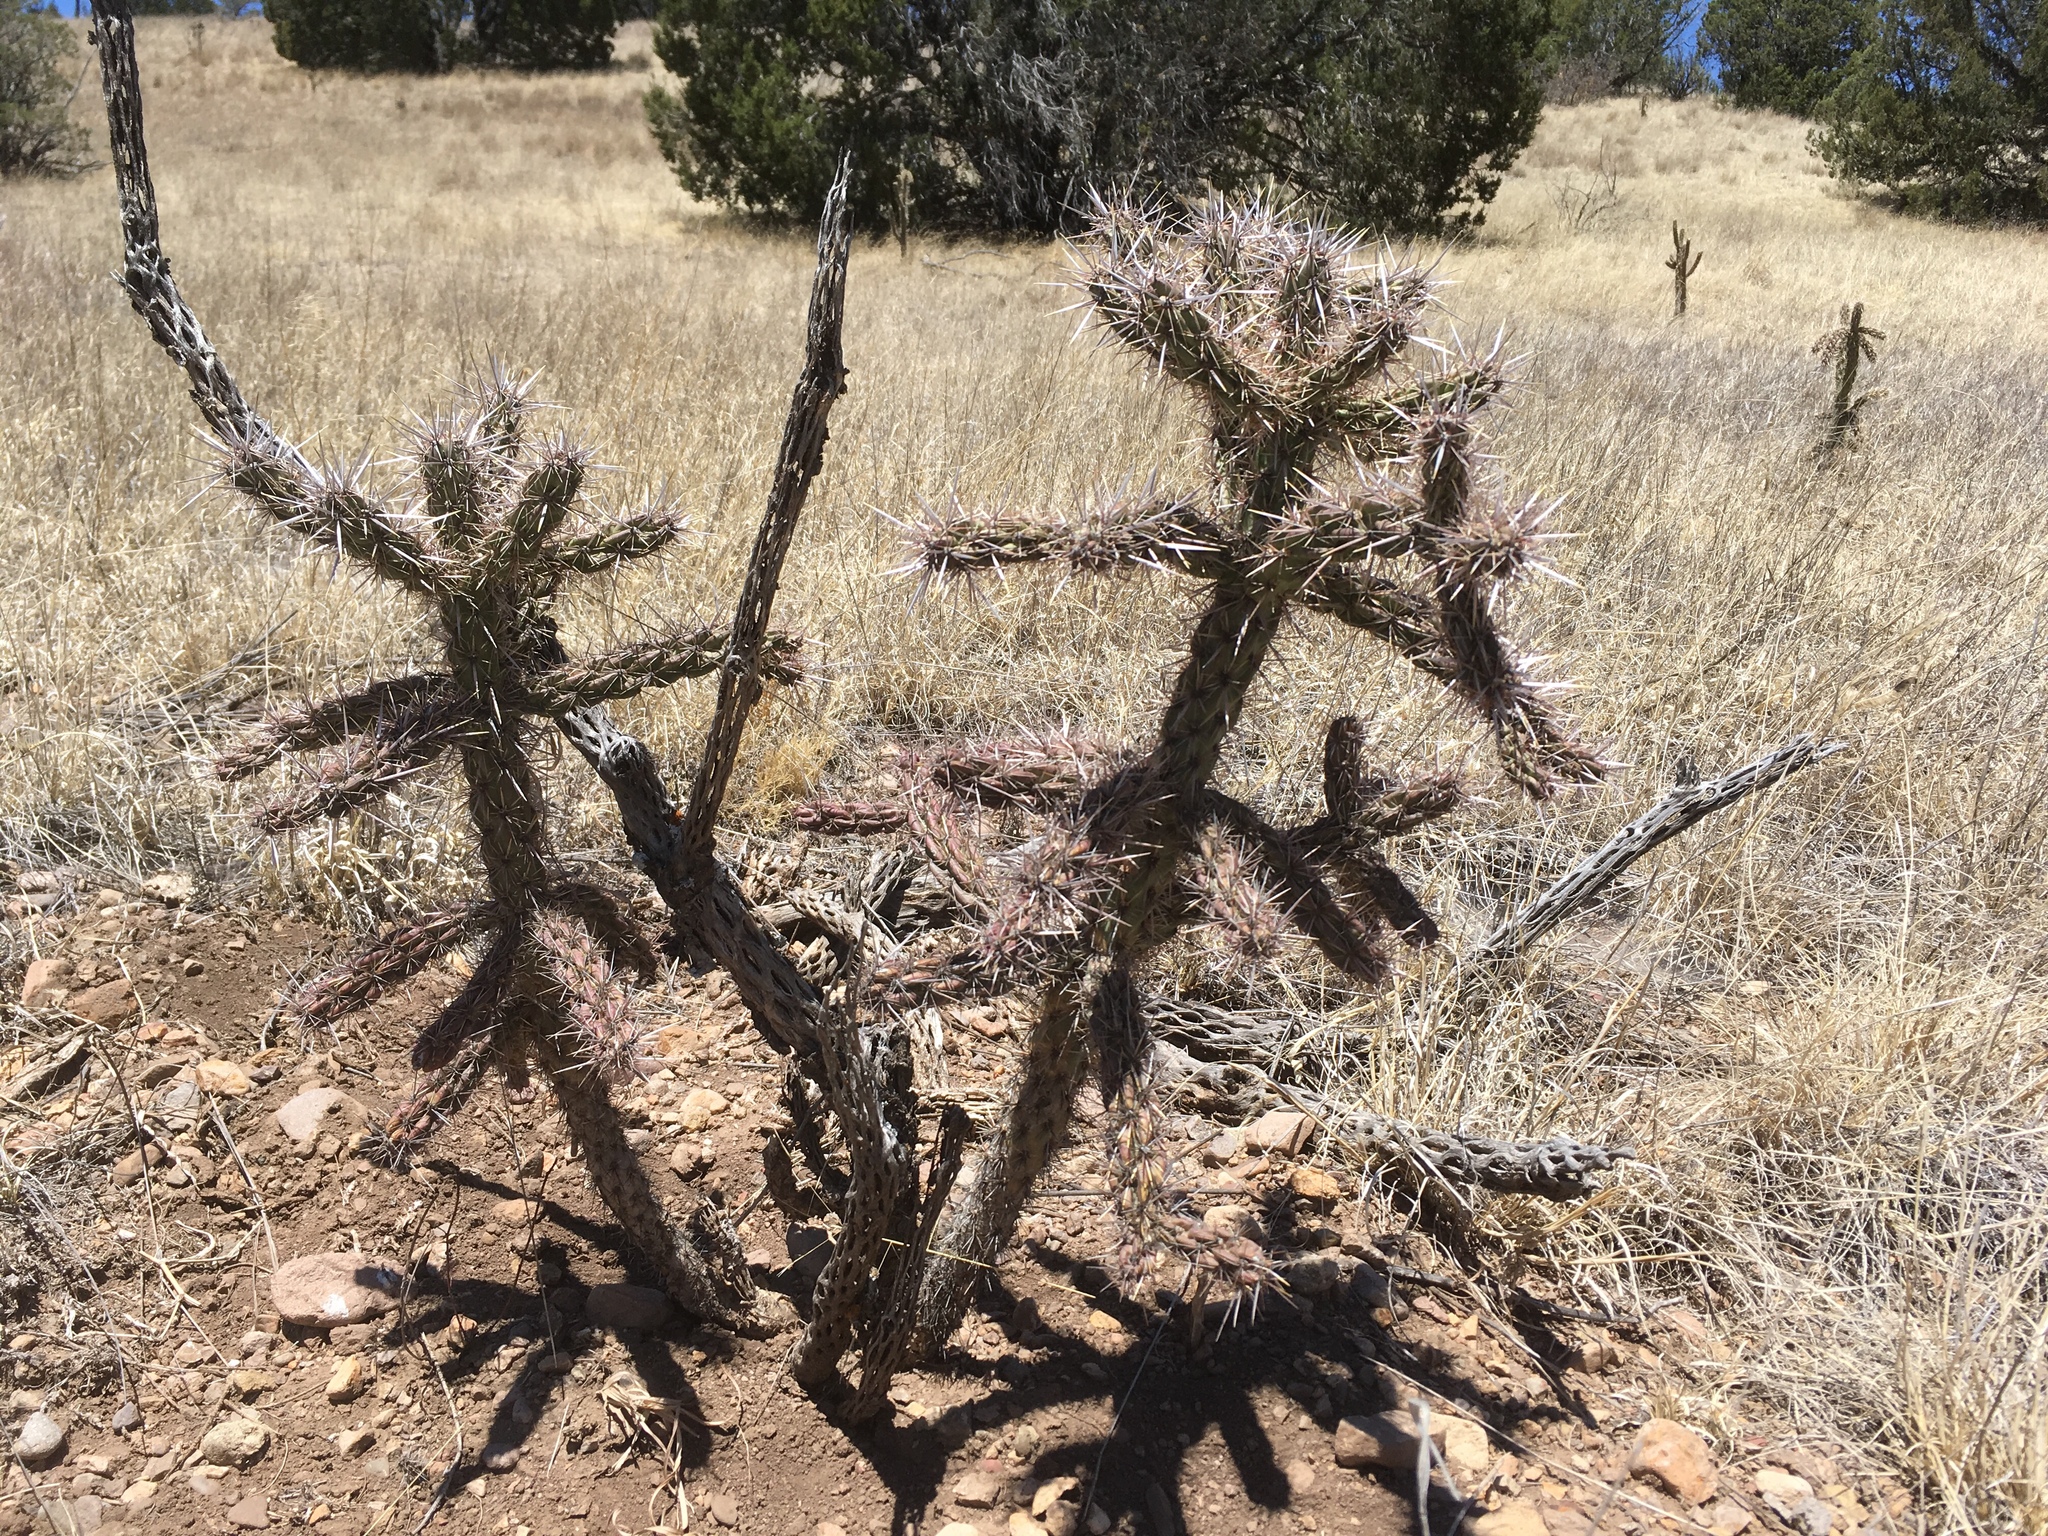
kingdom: Plantae
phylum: Tracheophyta
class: Magnoliopsida
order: Caryophyllales
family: Cactaceae
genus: Cylindropuntia
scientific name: Cylindropuntia imbricata
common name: Candelabrum cactus
